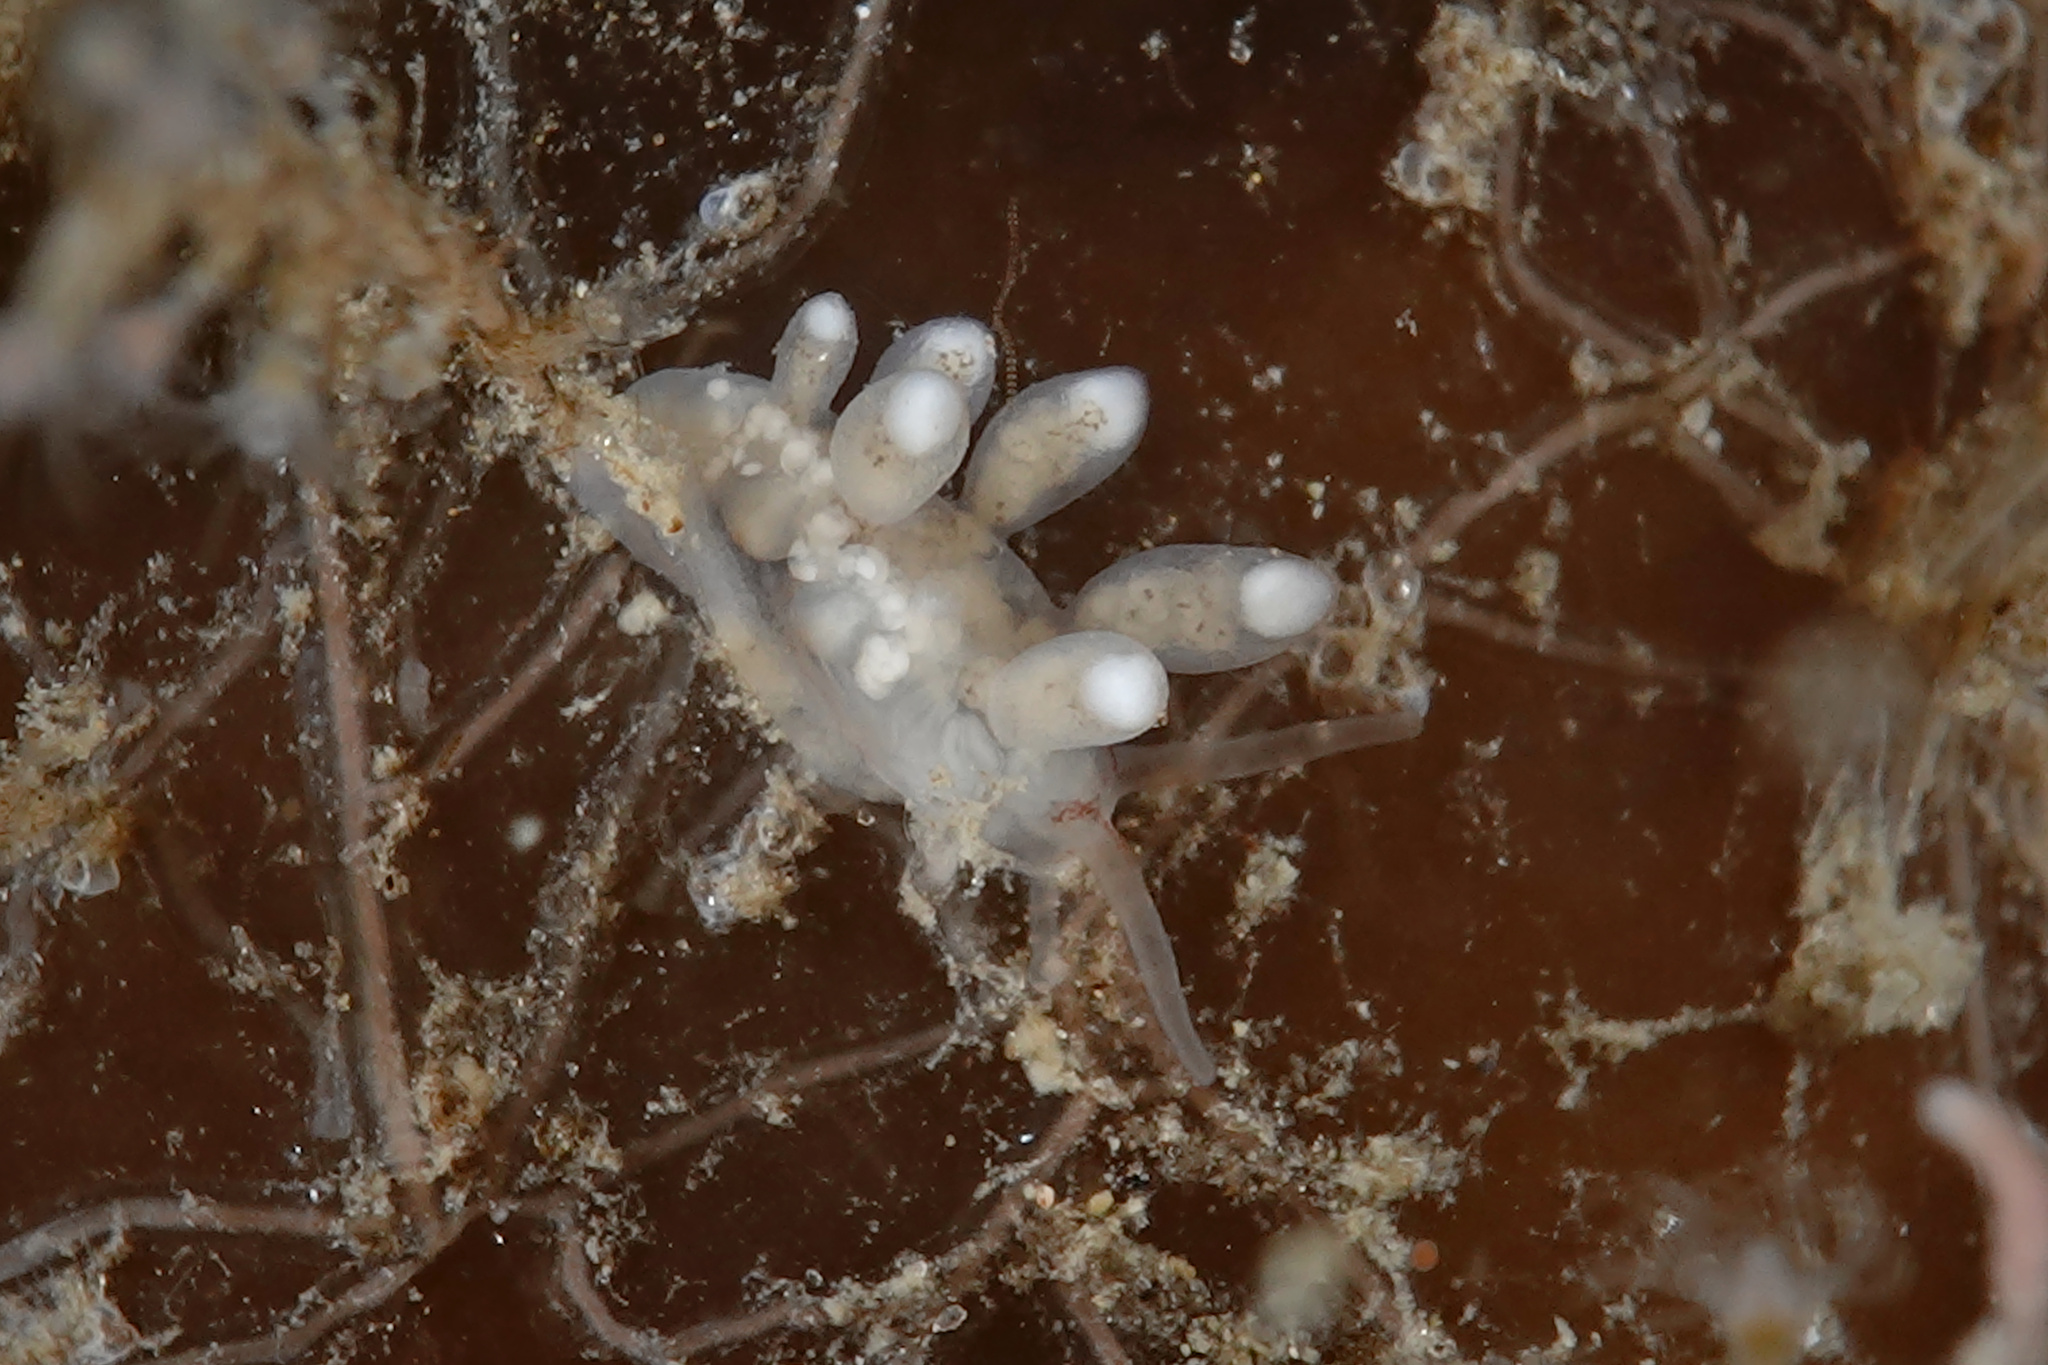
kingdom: Animalia
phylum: Mollusca
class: Gastropoda
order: Nudibranchia
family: Tergipedidae
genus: Tergipes
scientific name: Tergipes tergipes
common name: Johnston's balloon eolis
